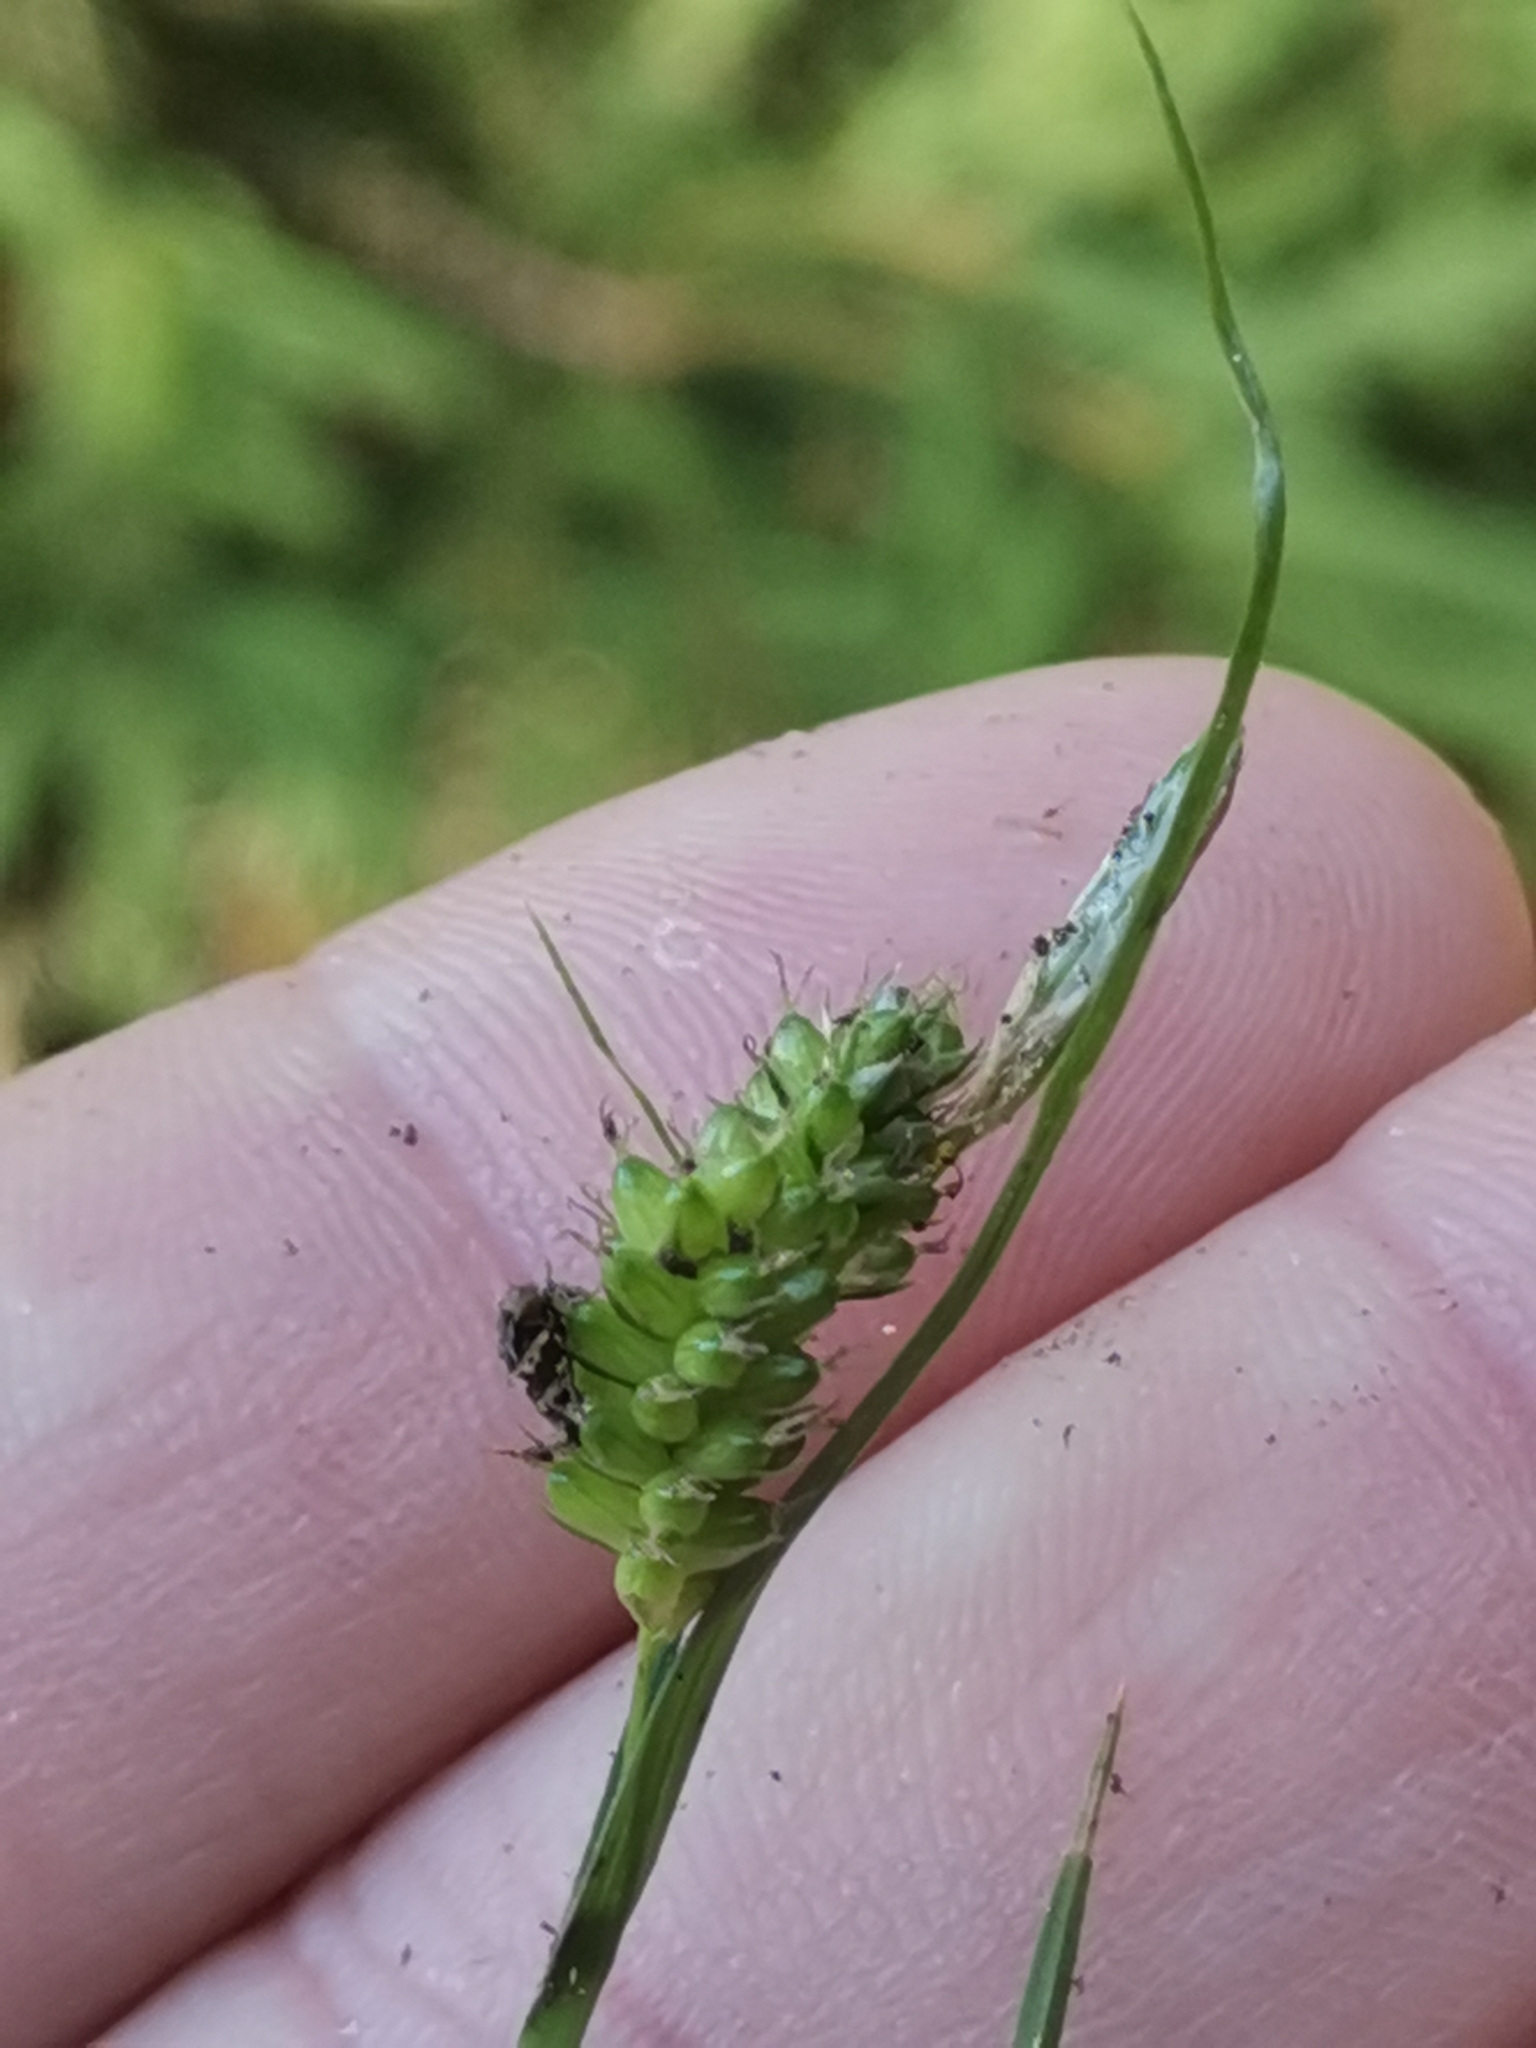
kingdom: Plantae
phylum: Tracheophyta
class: Liliopsida
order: Poales
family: Cyperaceae
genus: Carex
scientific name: Carex pallescens
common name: Pale sedge
